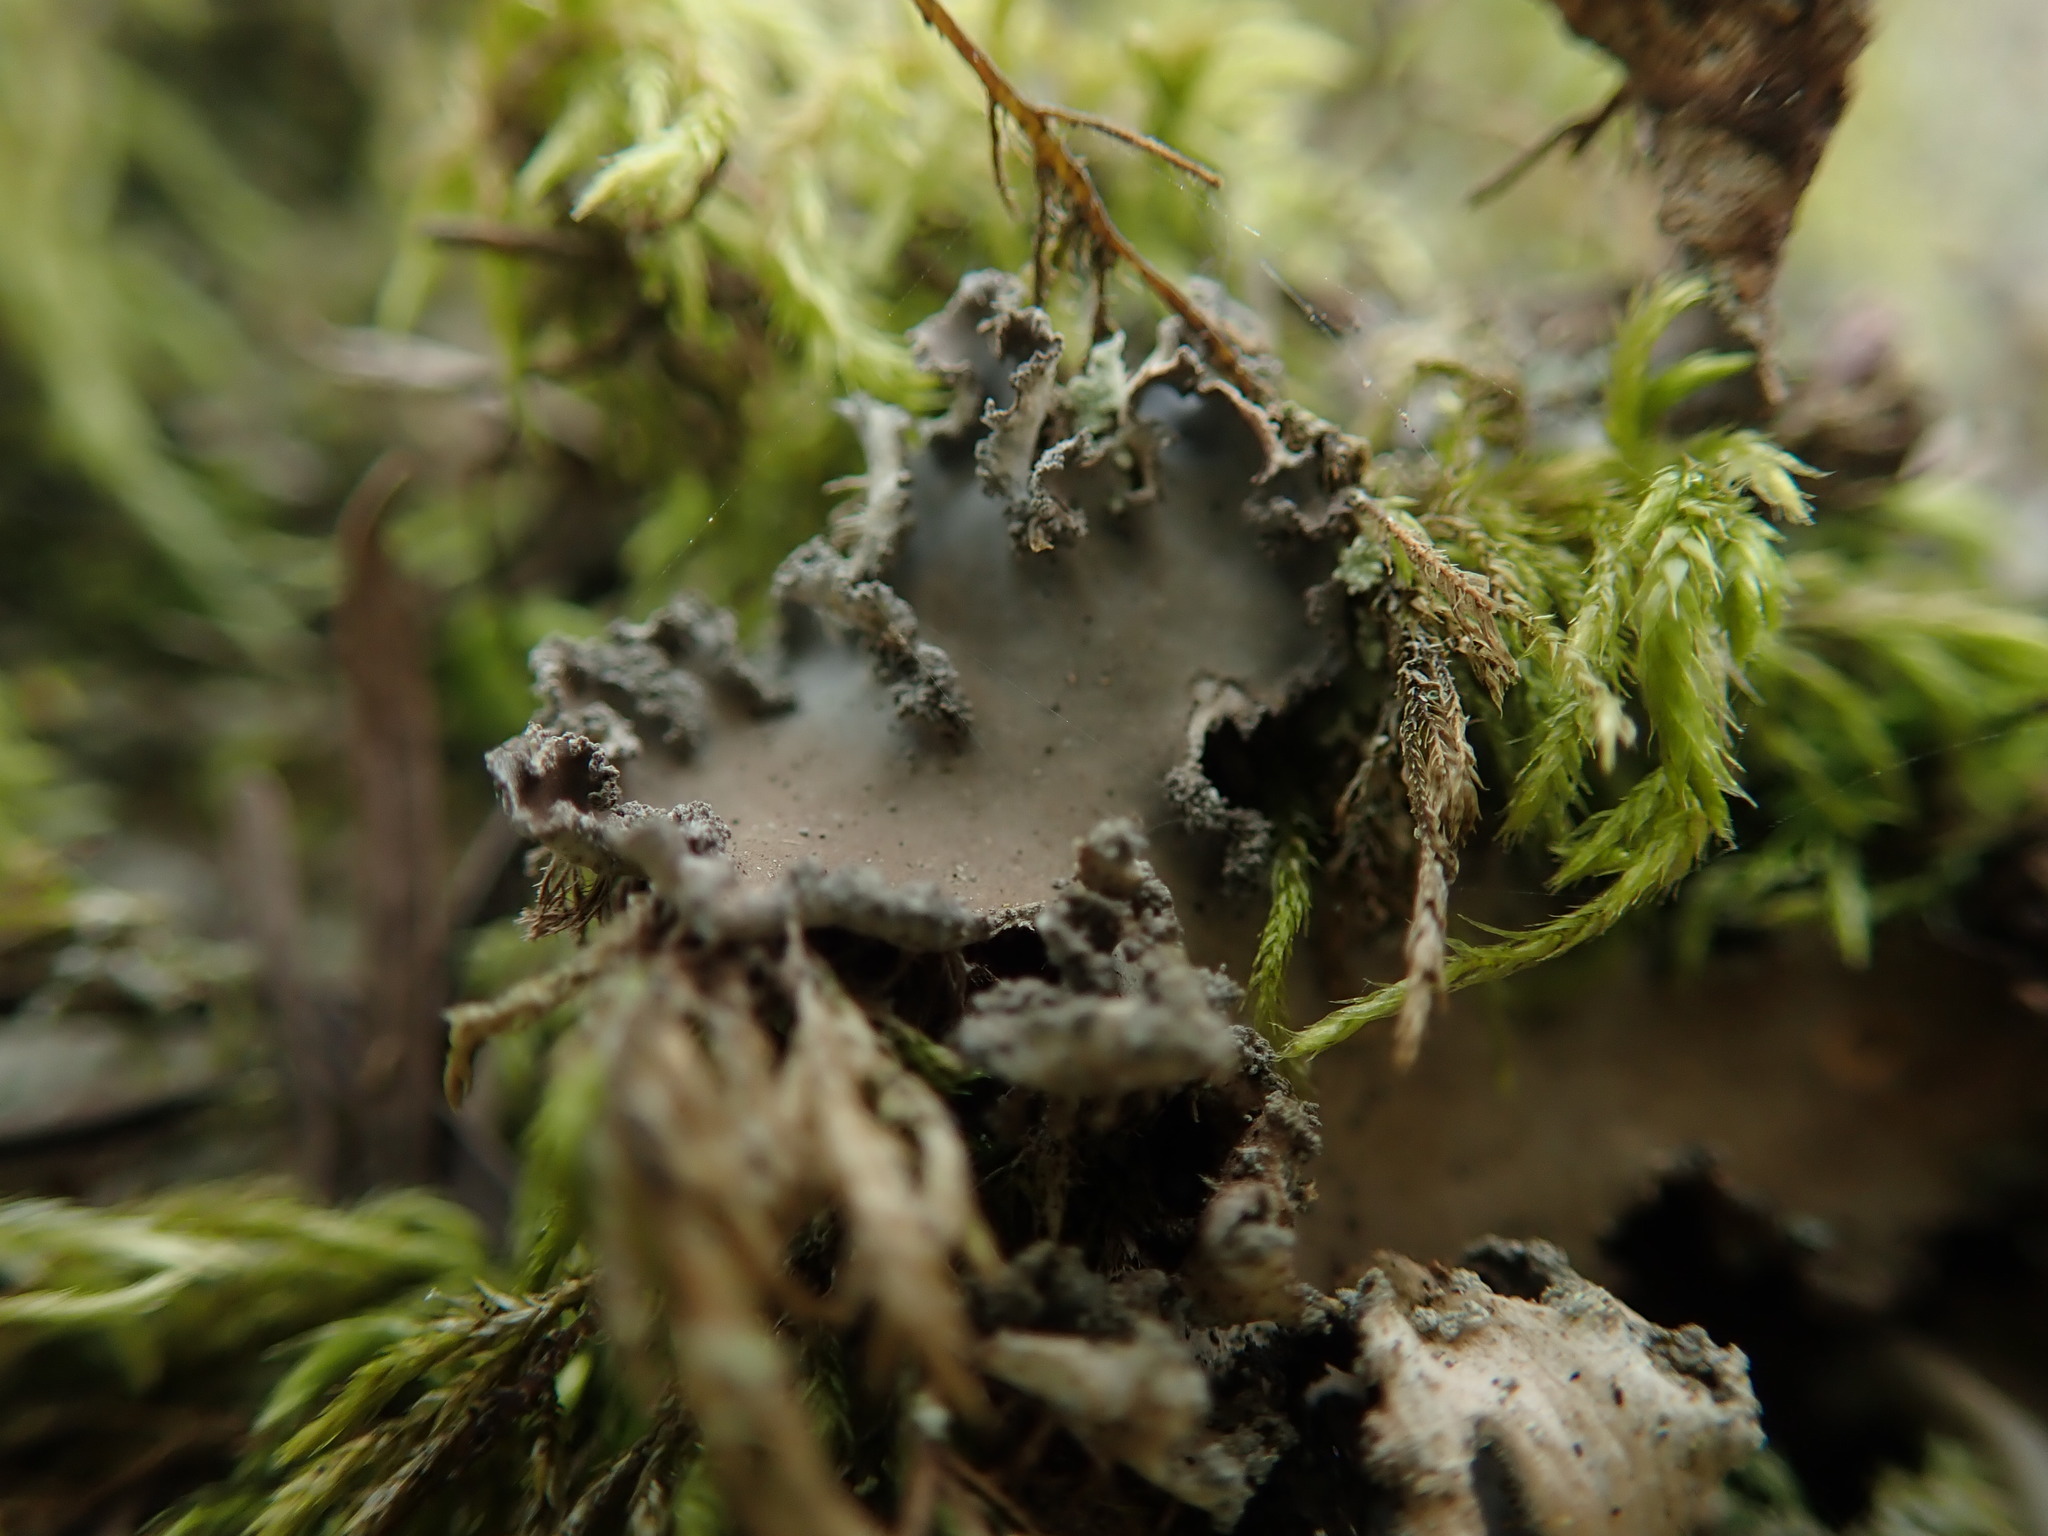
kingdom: Fungi
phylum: Ascomycota
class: Lecanoromycetes
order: Peltigerales
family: Peltigeraceae
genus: Peltigera
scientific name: Peltigera collina
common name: Gritty tree pelt lichen
